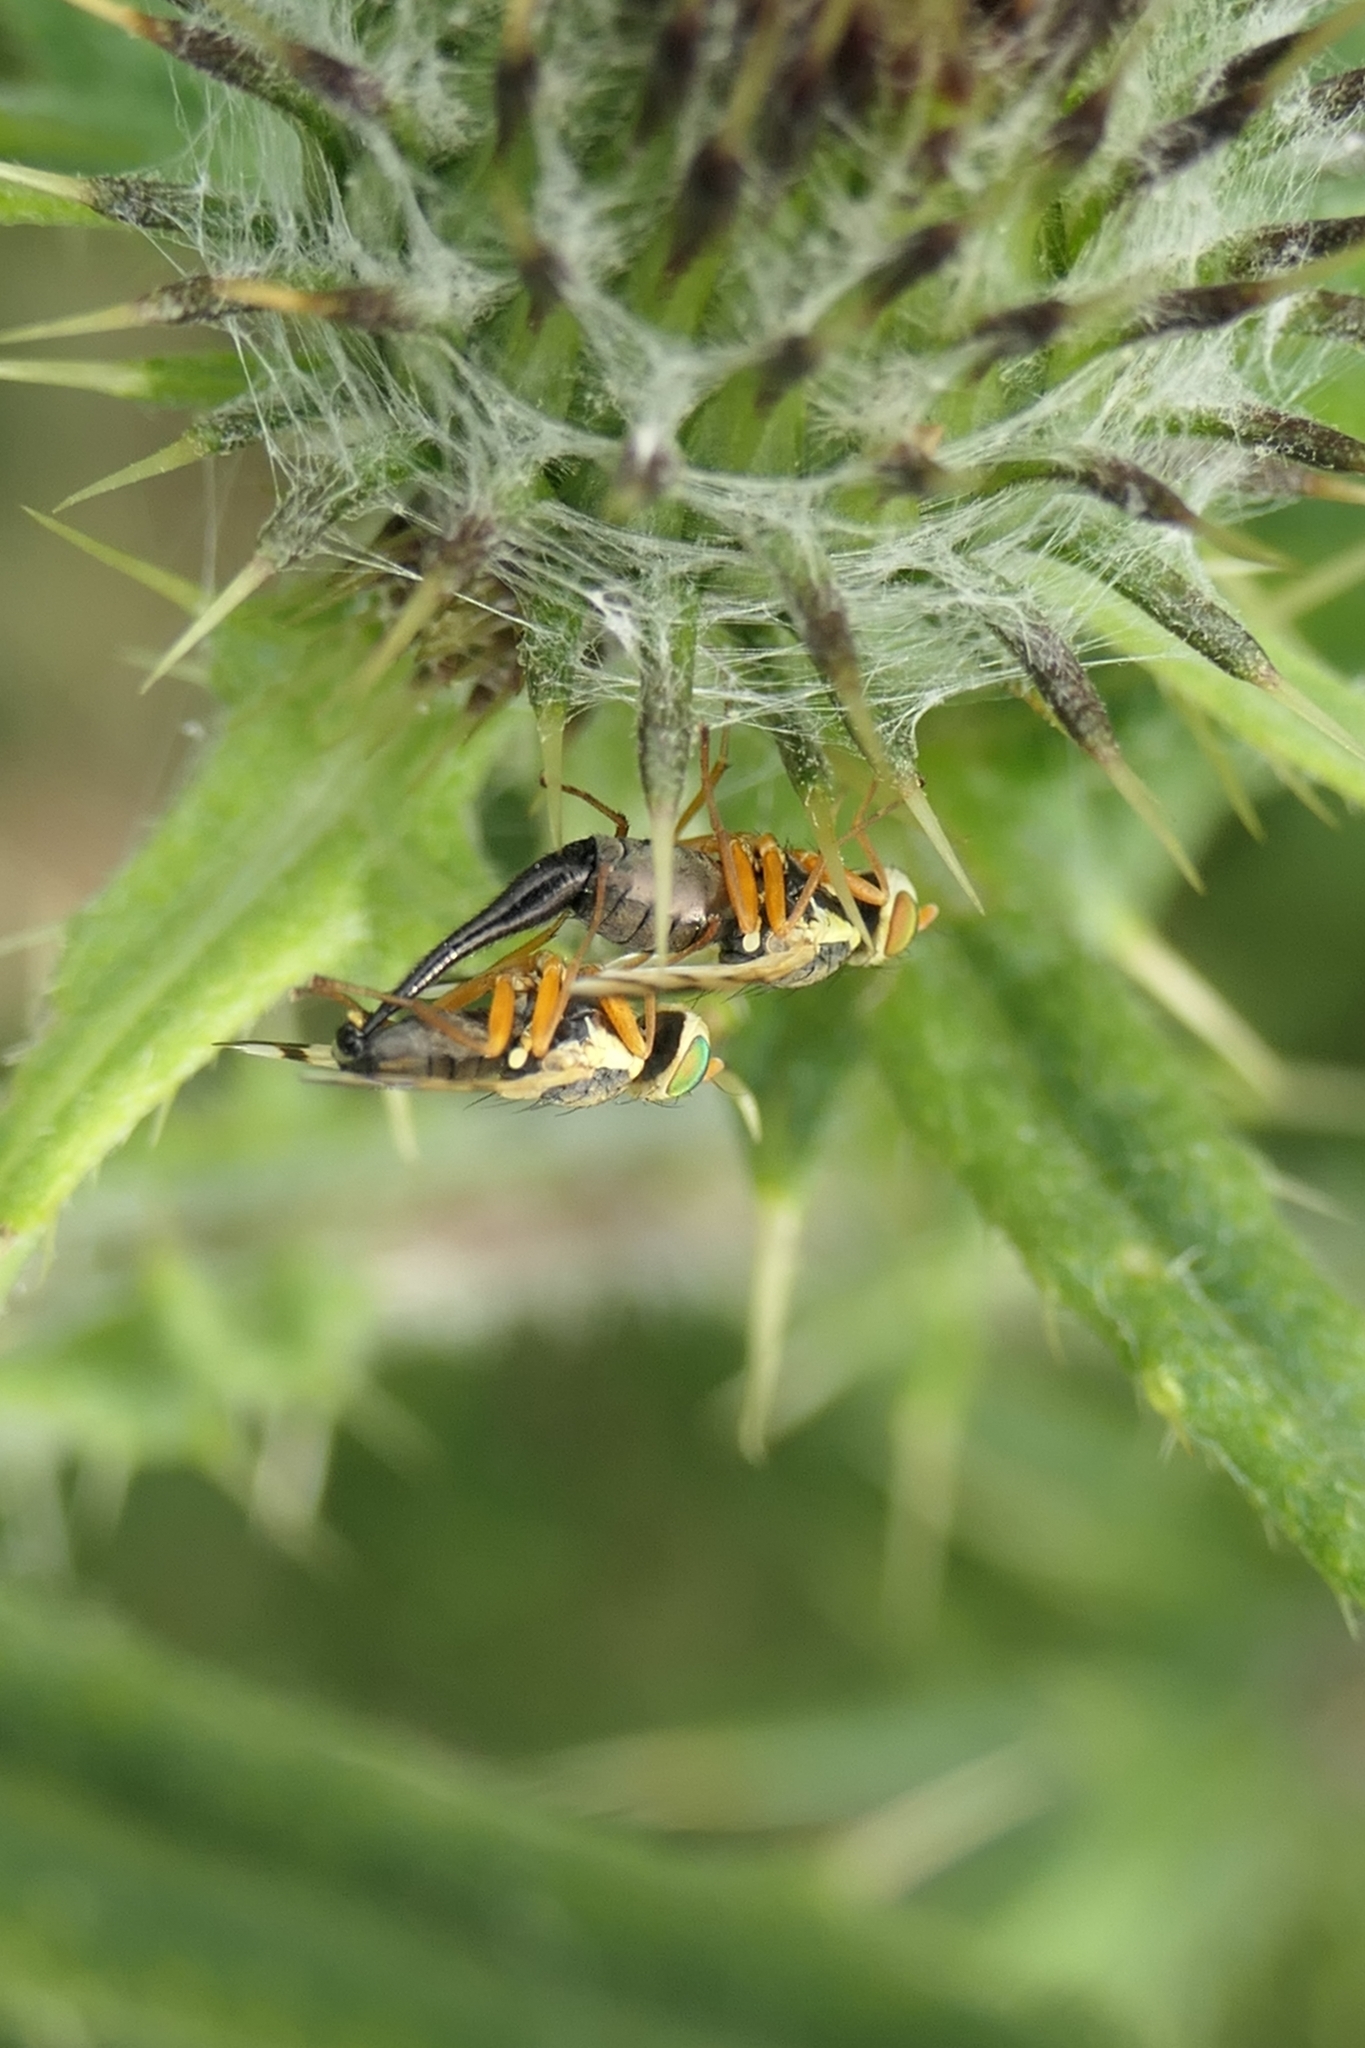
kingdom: Animalia
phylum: Arthropoda
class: Insecta
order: Diptera
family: Tephritidae
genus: Urophora
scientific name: Urophora stylata
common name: Fruit fly
